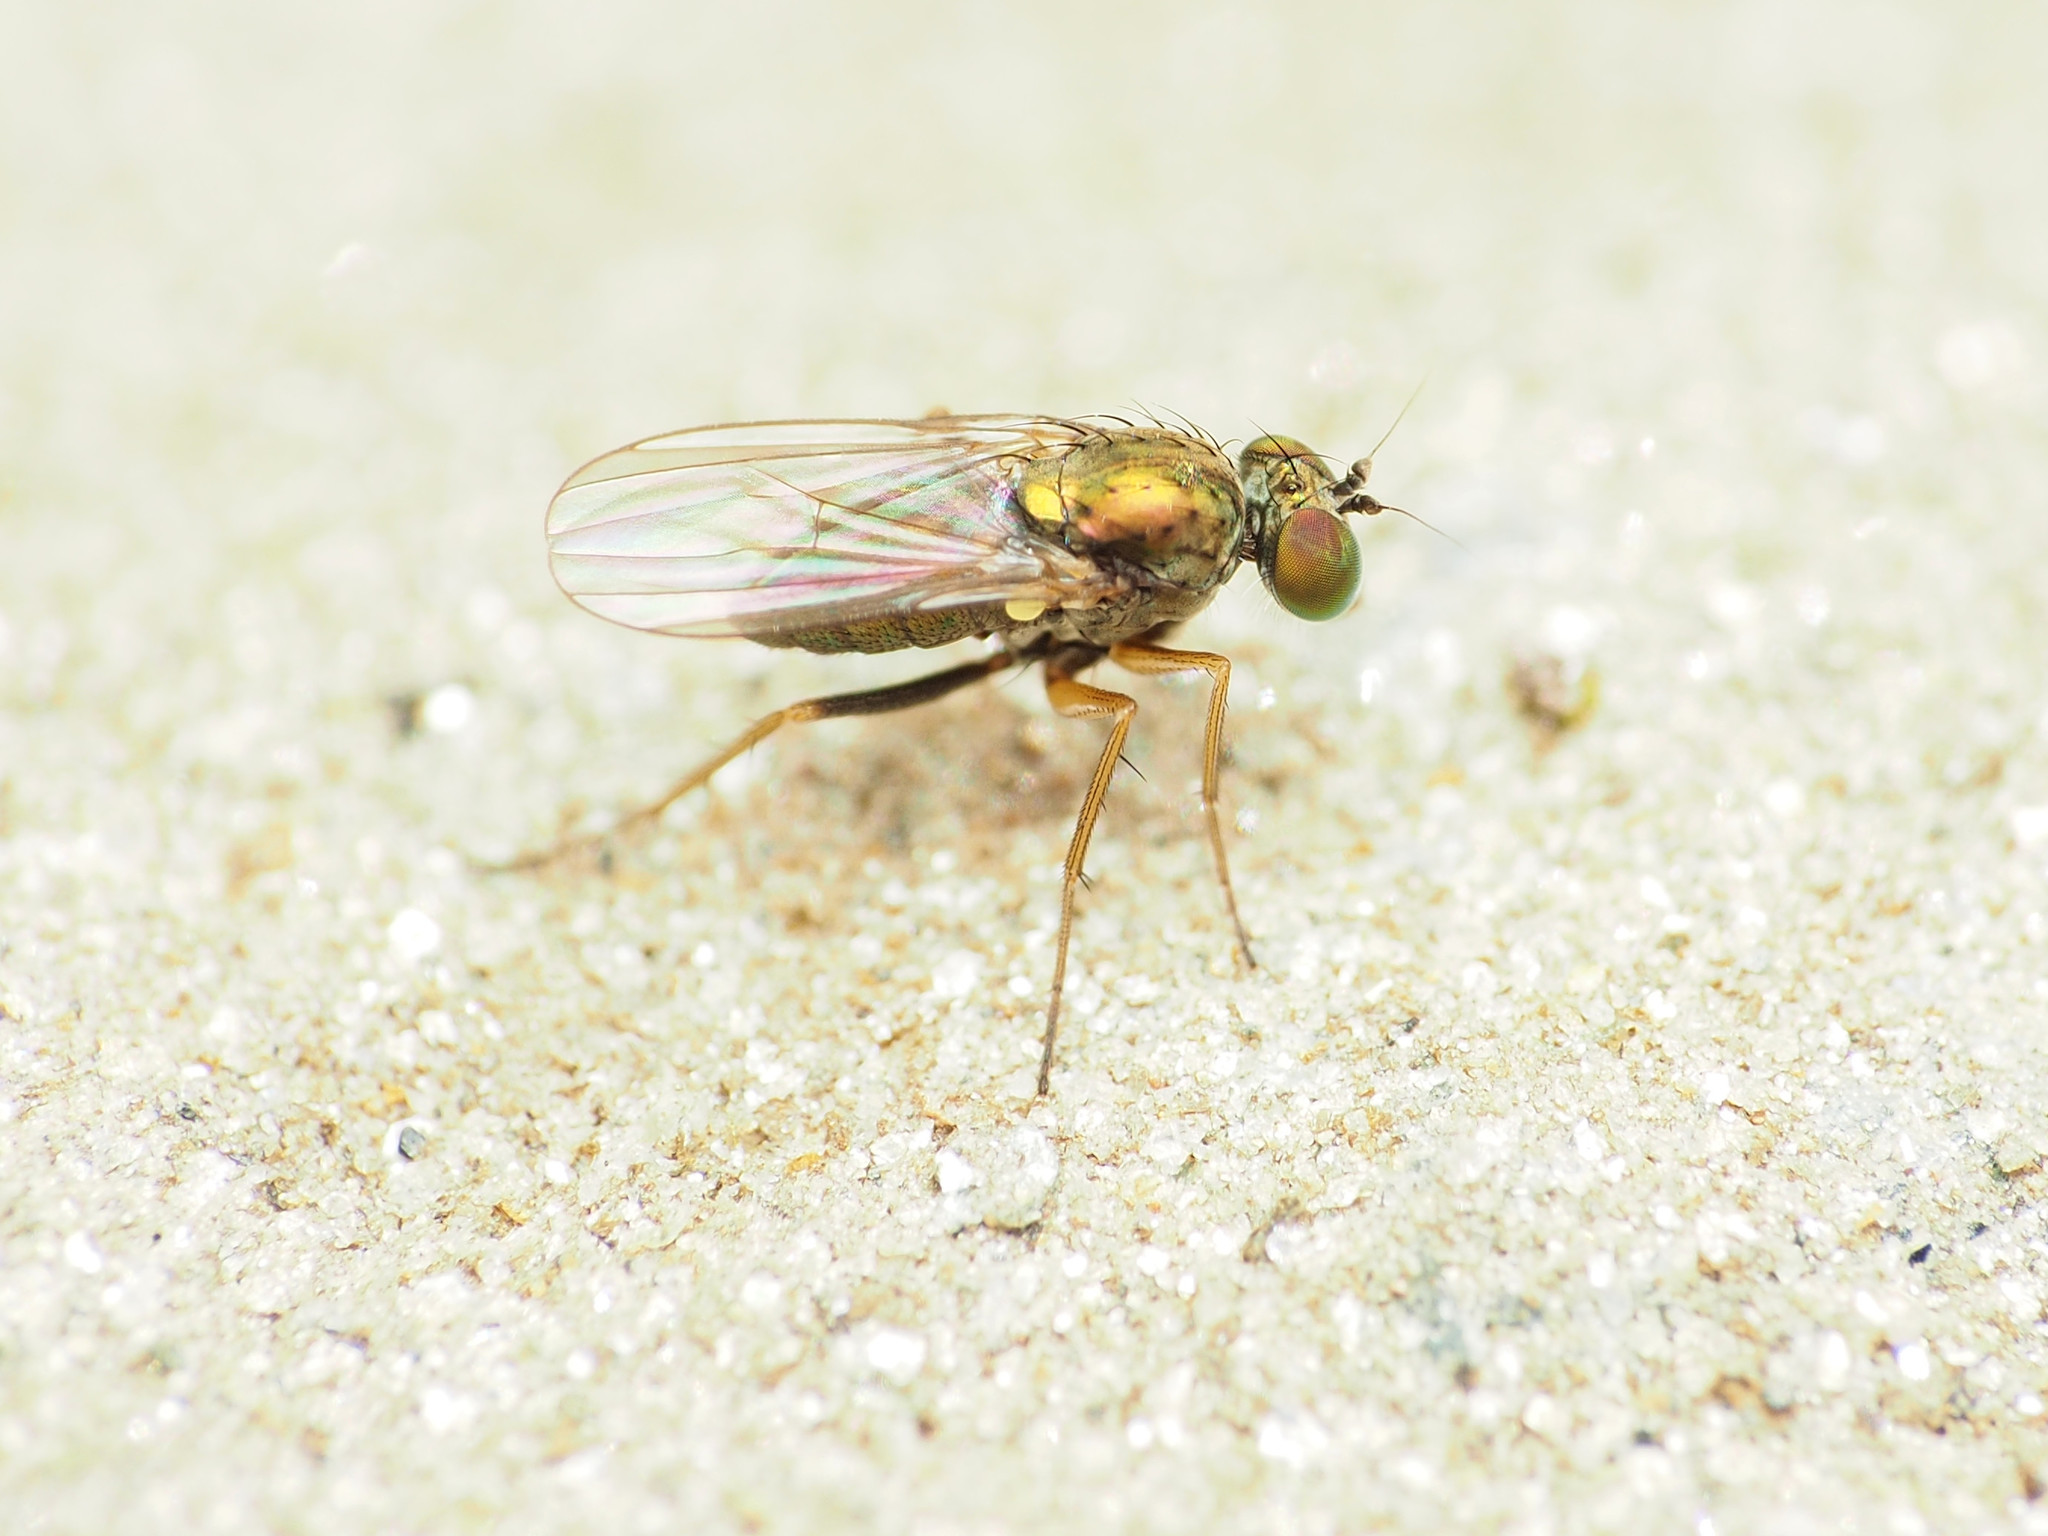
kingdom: Animalia
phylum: Arthropoda
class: Insecta
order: Diptera
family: Dolichopodidae
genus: Achradocera
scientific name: Achradocera barbata
